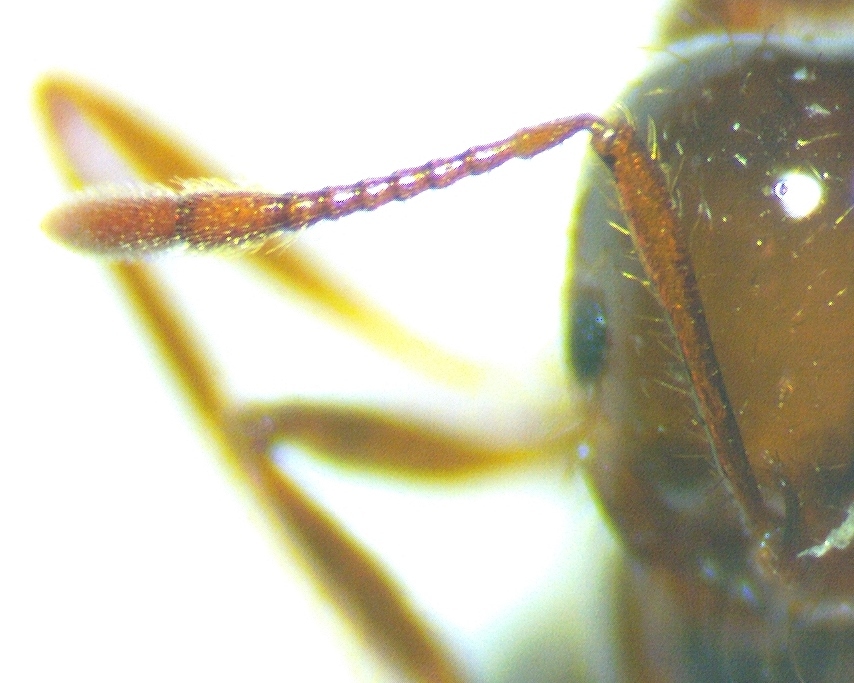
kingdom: Animalia
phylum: Arthropoda
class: Insecta
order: Hymenoptera
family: Formicidae
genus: Solenopsis
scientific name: Solenopsis invicta
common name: Red imported fire ant
